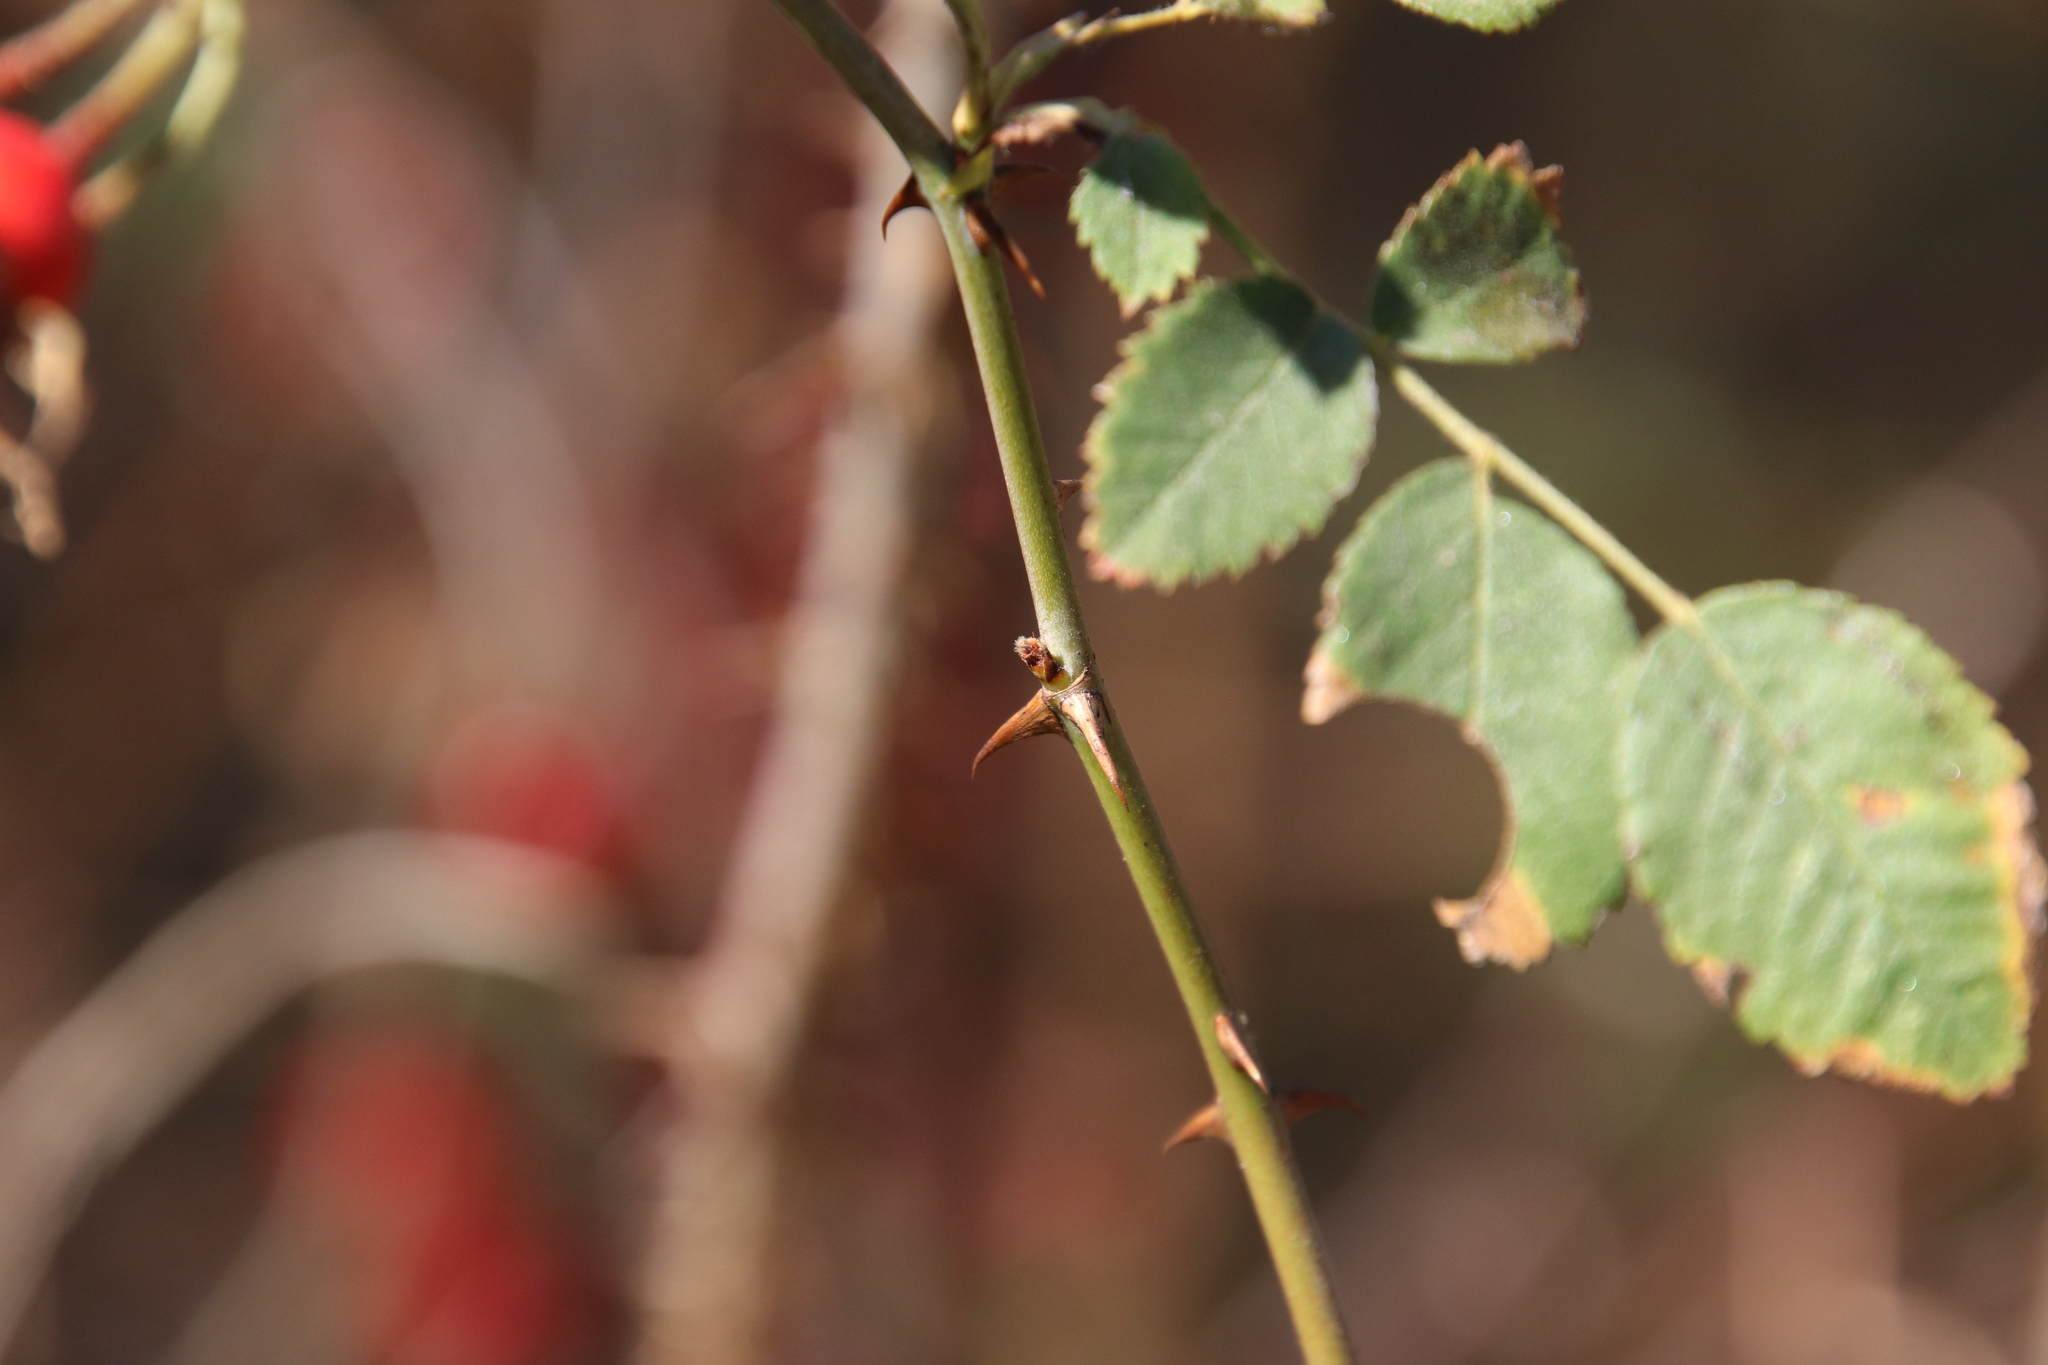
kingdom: Plantae
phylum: Tracheophyta
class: Magnoliopsida
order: Rosales
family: Rosaceae
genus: Rosa
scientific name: Rosa californica
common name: California rose
